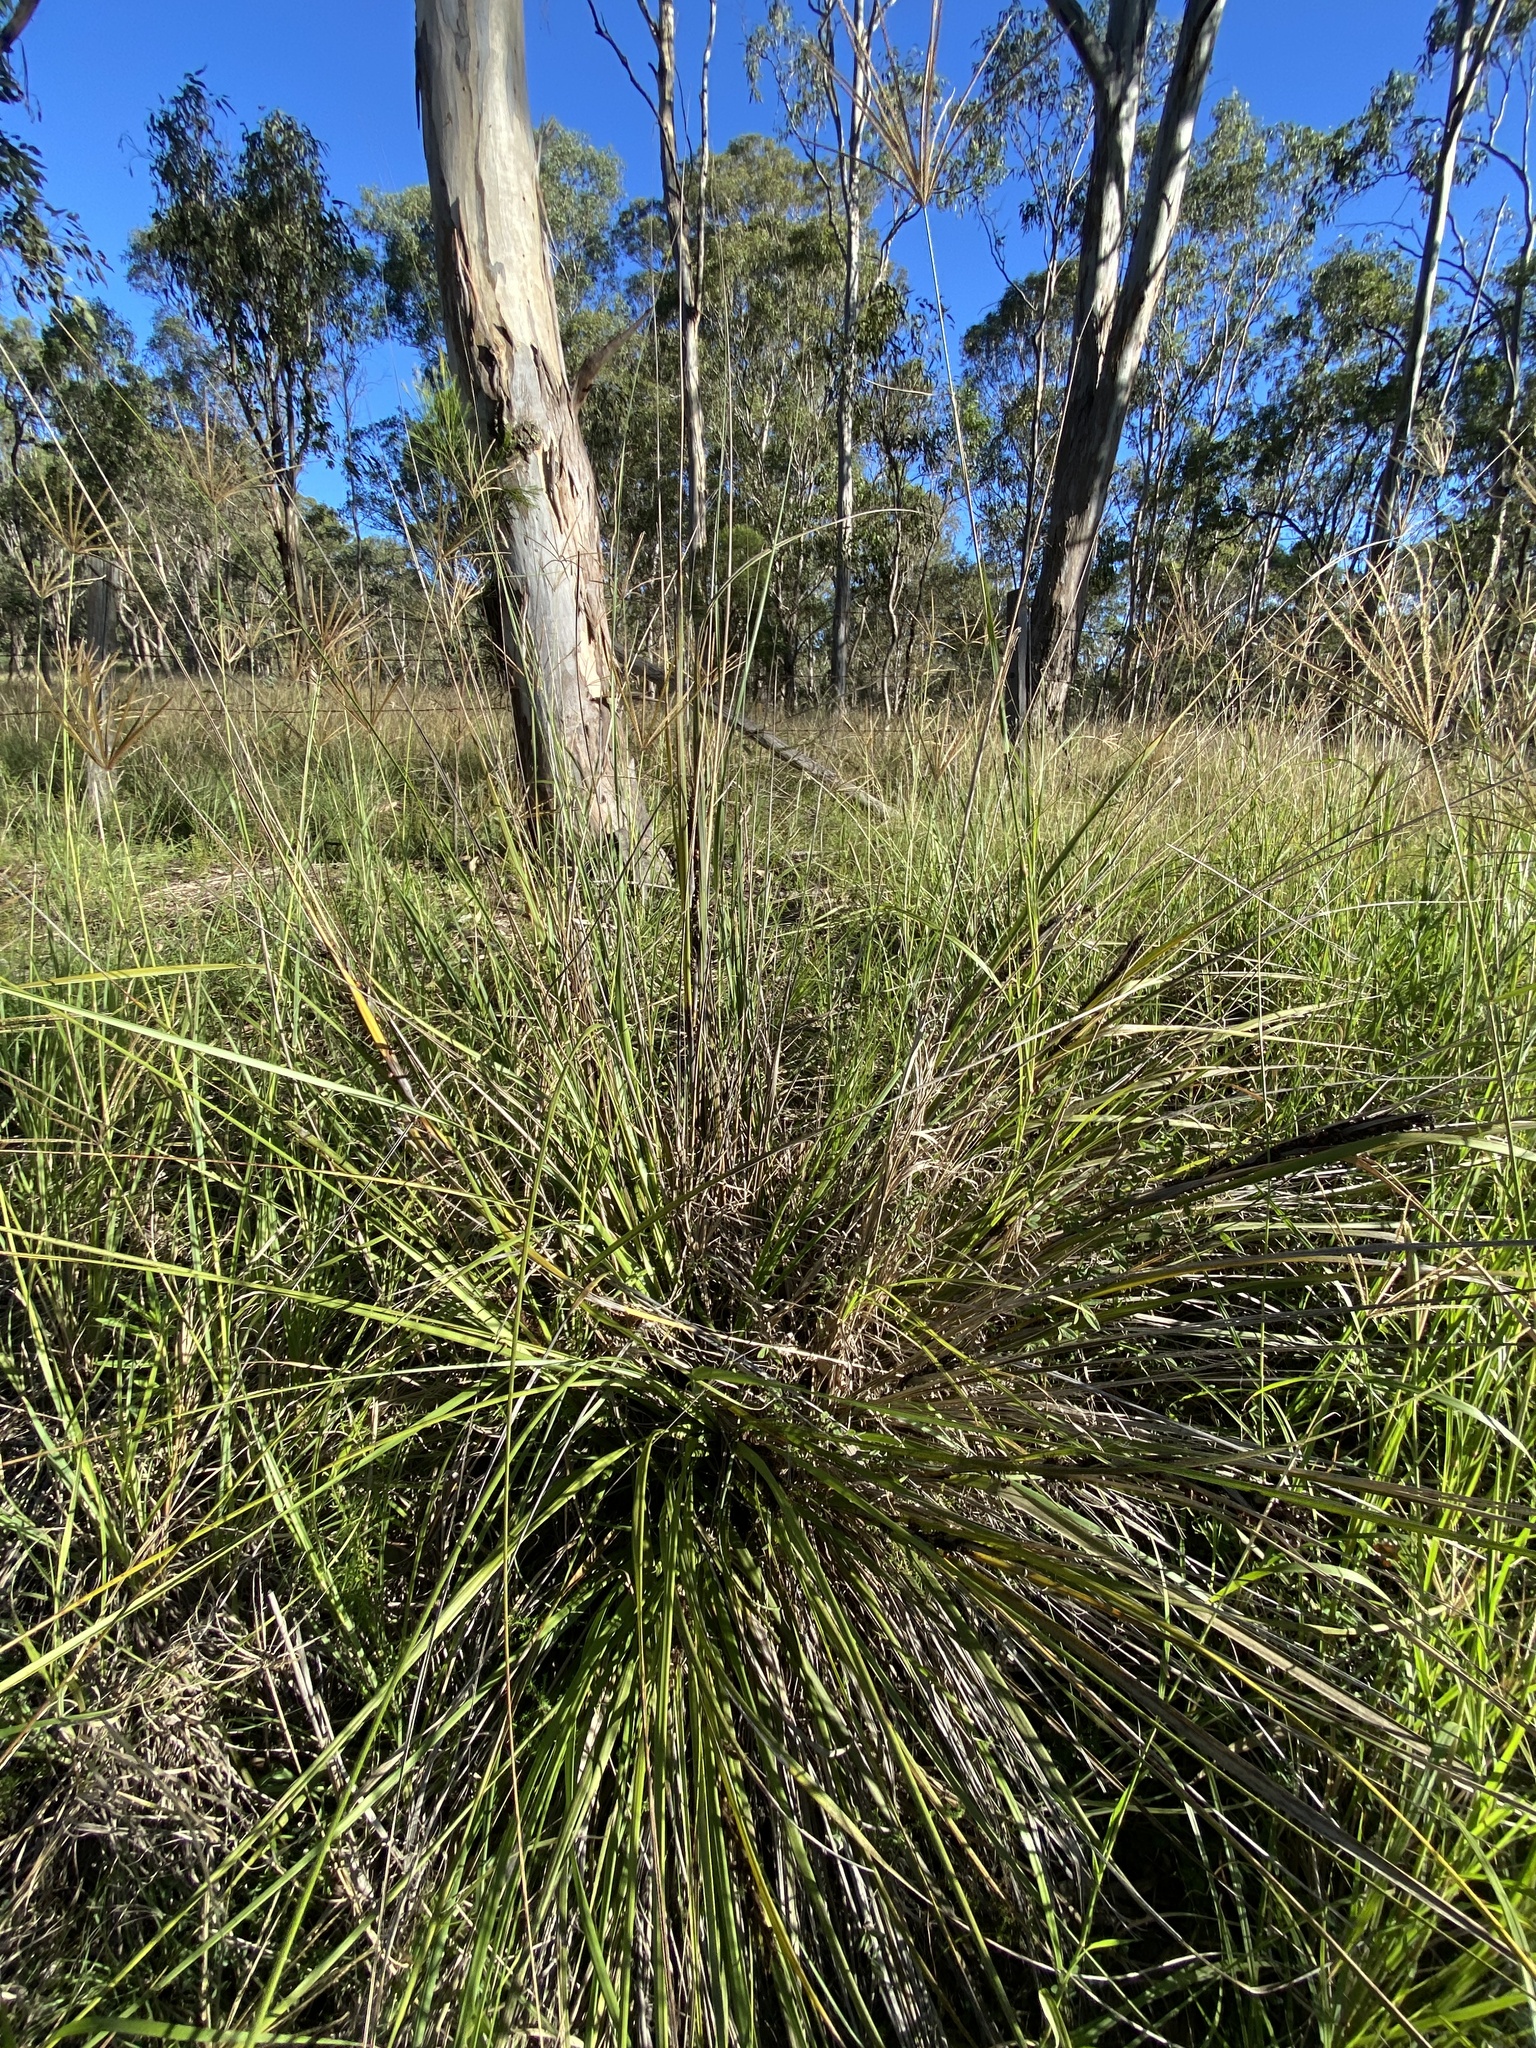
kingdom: Plantae
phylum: Tracheophyta
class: Liliopsida
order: Poales
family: Cyperaceae
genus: Gahnia
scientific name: Gahnia aspera
